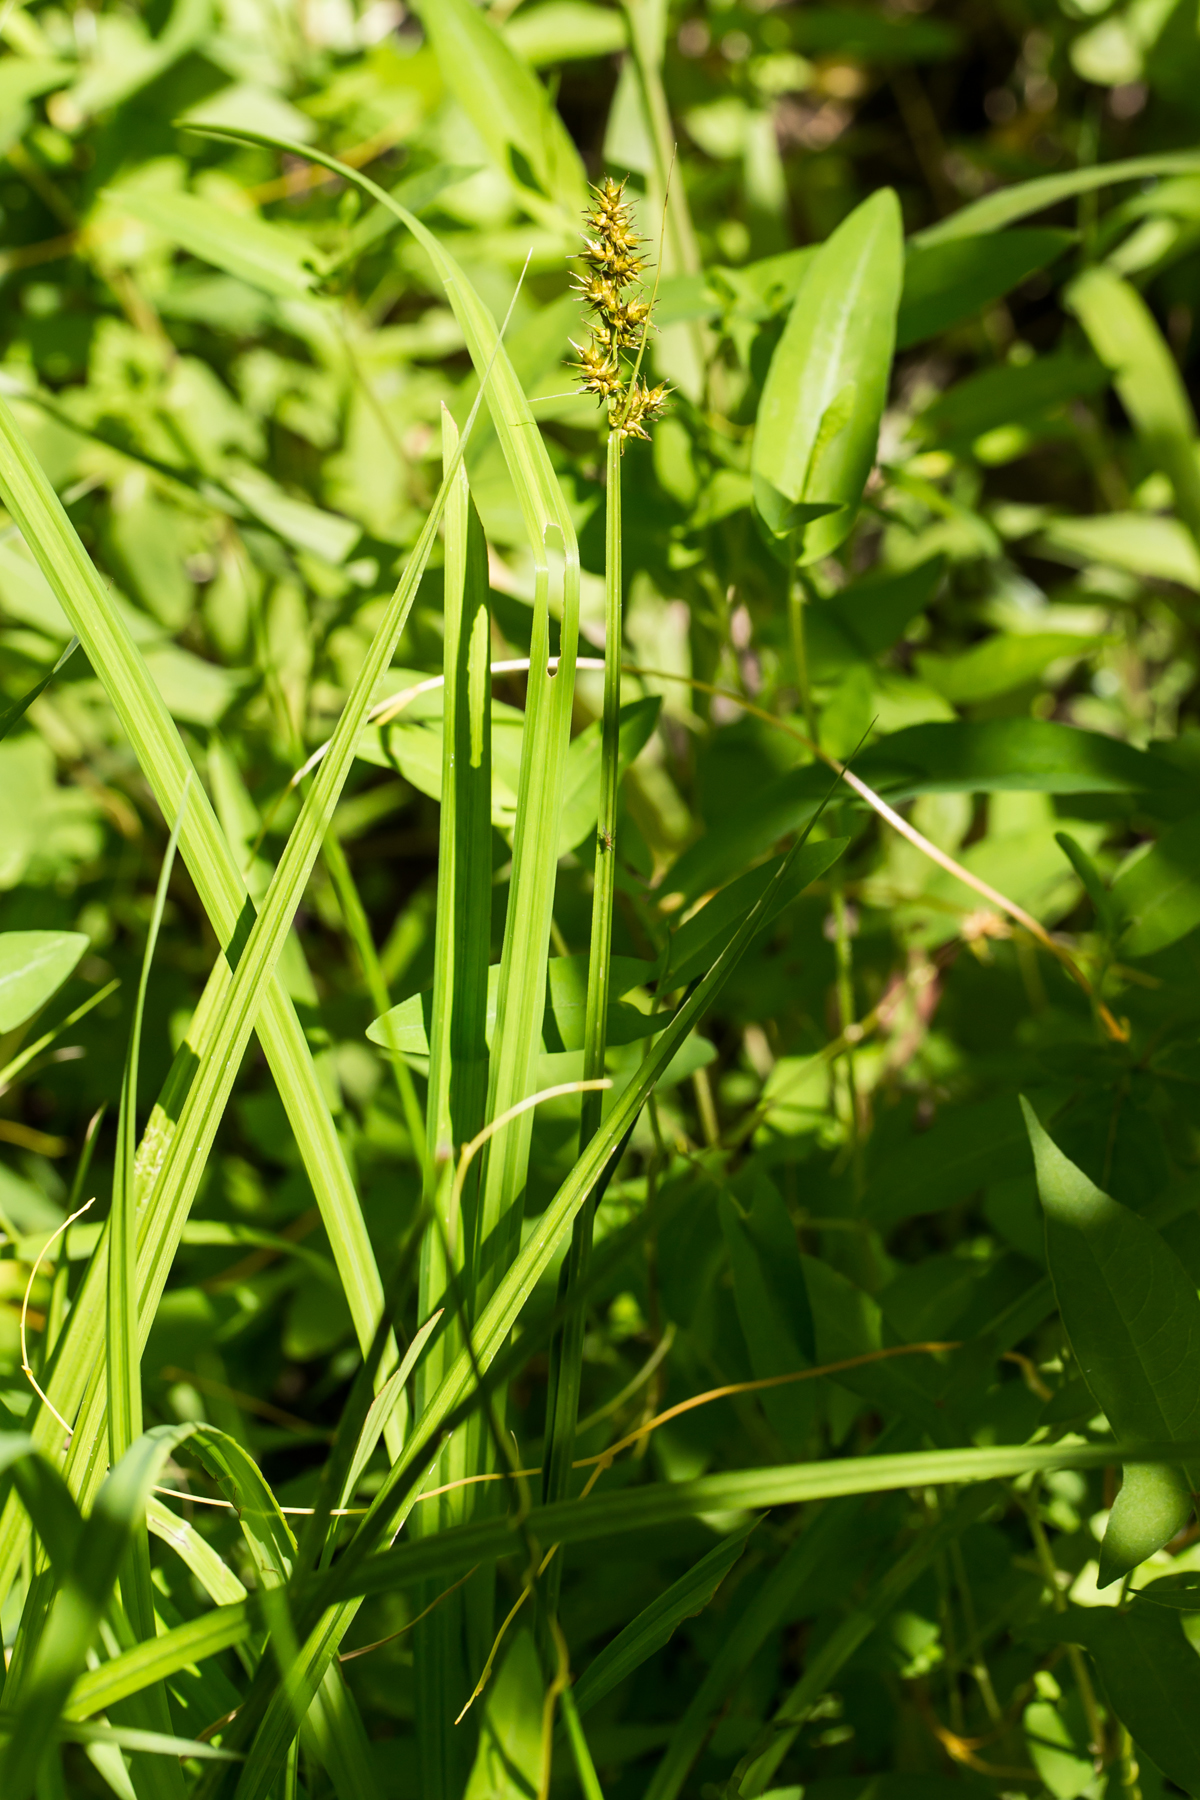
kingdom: Plantae
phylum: Tracheophyta
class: Liliopsida
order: Poales
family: Cyperaceae
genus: Carex
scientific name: Carex stipata
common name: Awl-fruited sedge
